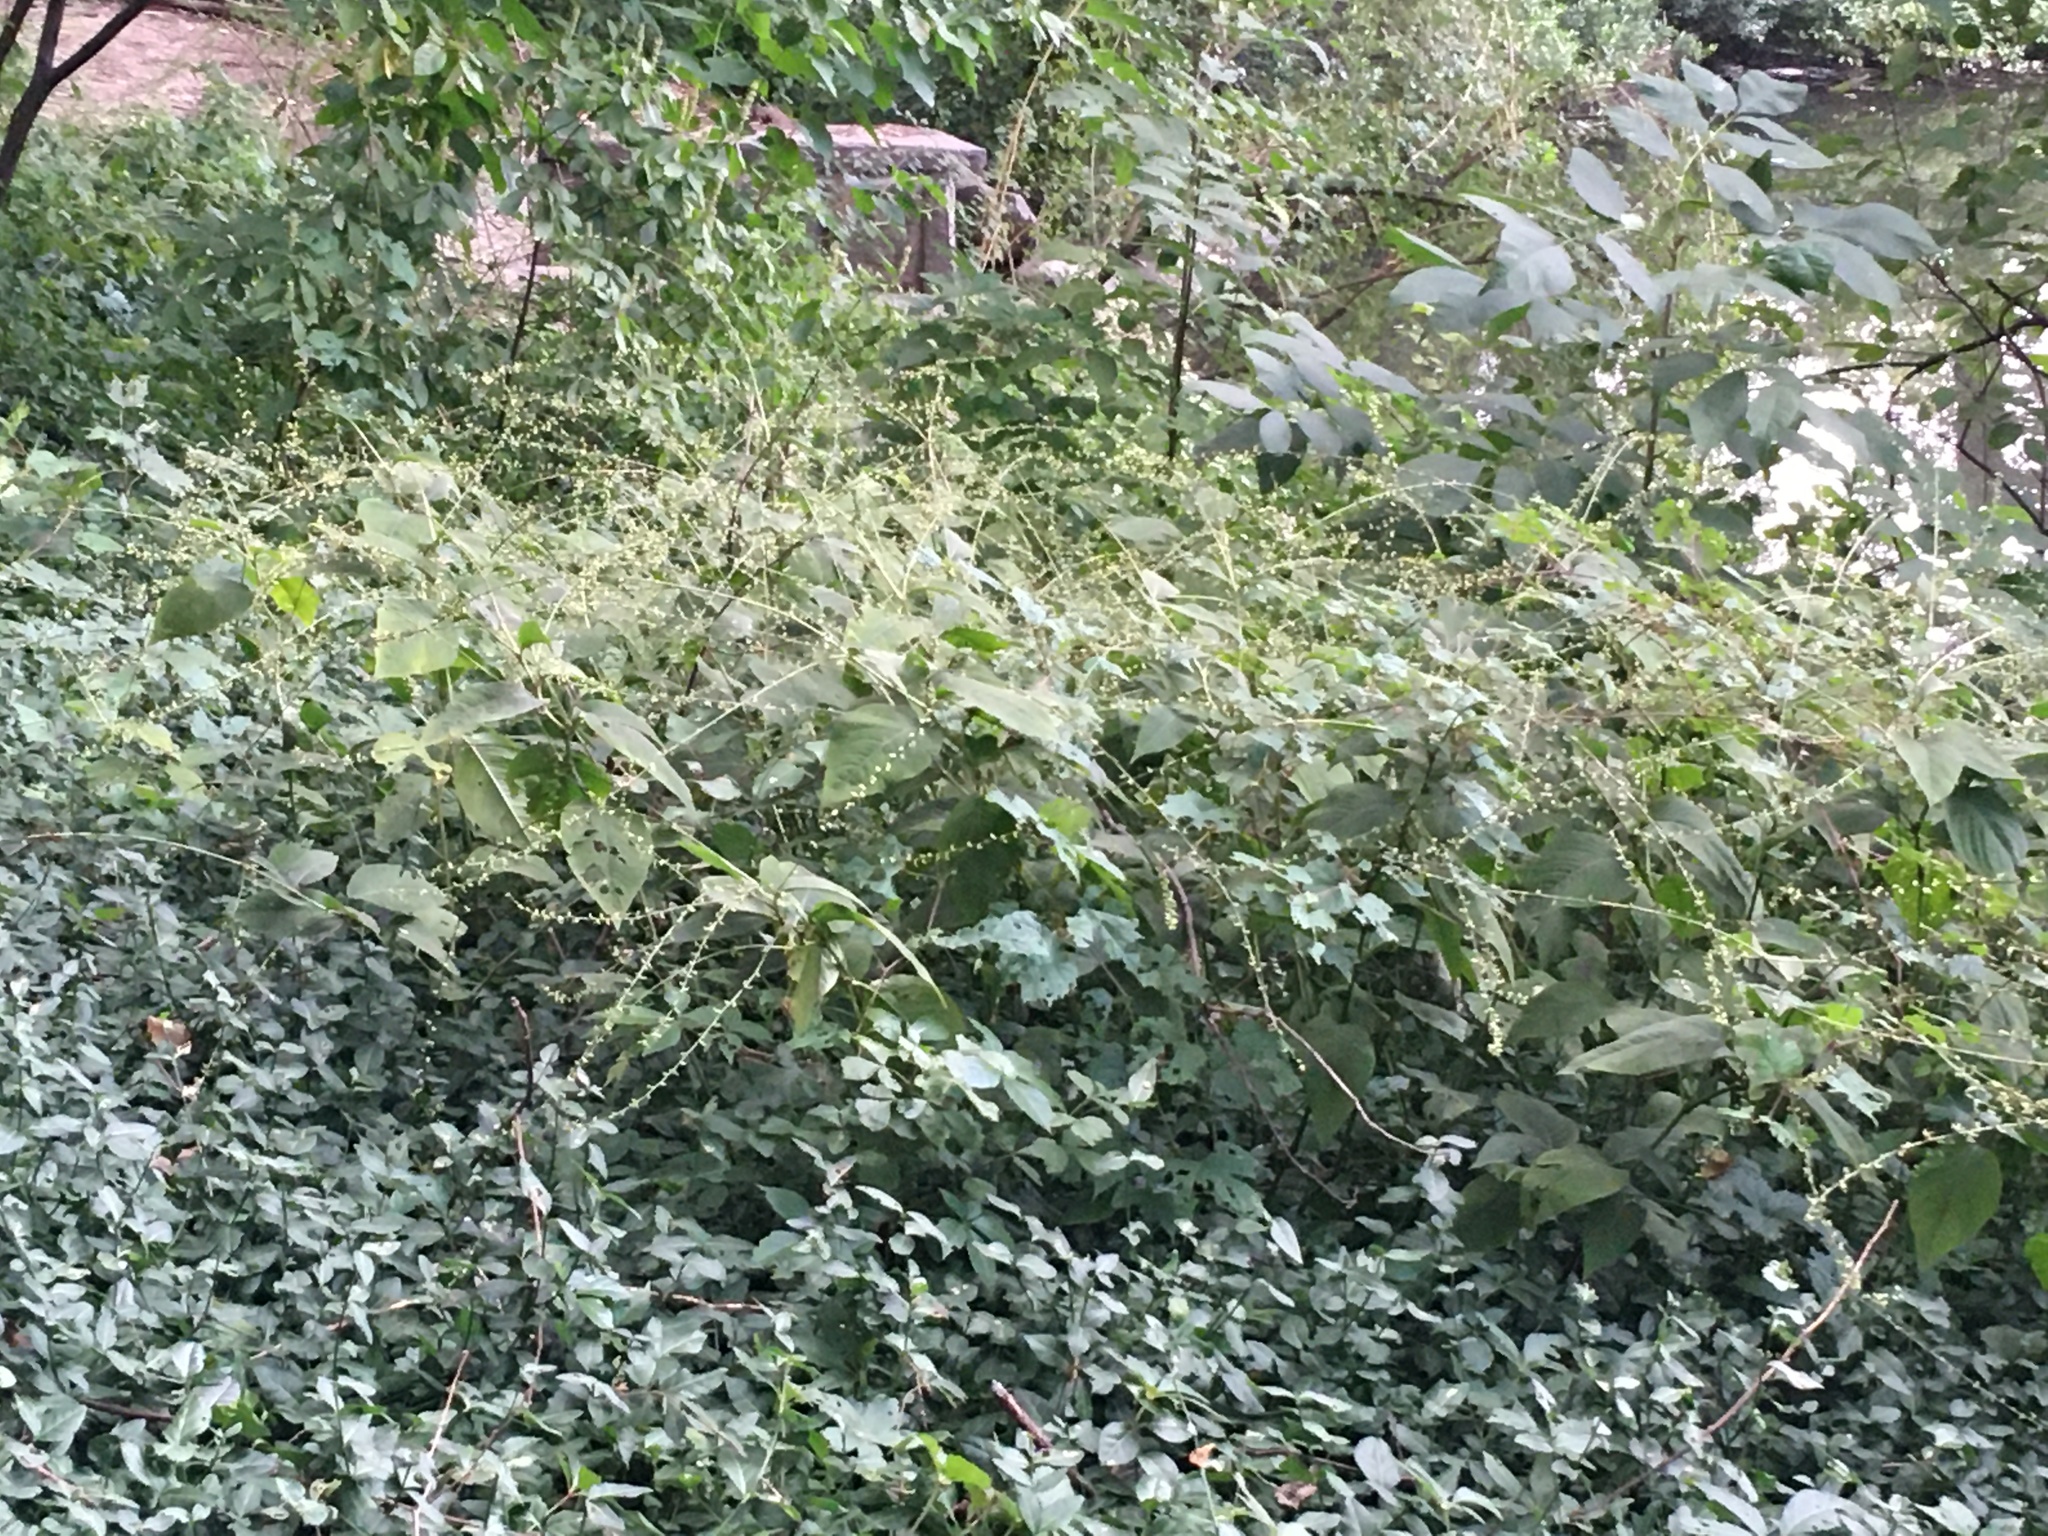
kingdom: Plantae
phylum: Tracheophyta
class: Magnoliopsida
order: Caryophyllales
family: Polygonaceae
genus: Persicaria
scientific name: Persicaria virginiana
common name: Jumpseed
